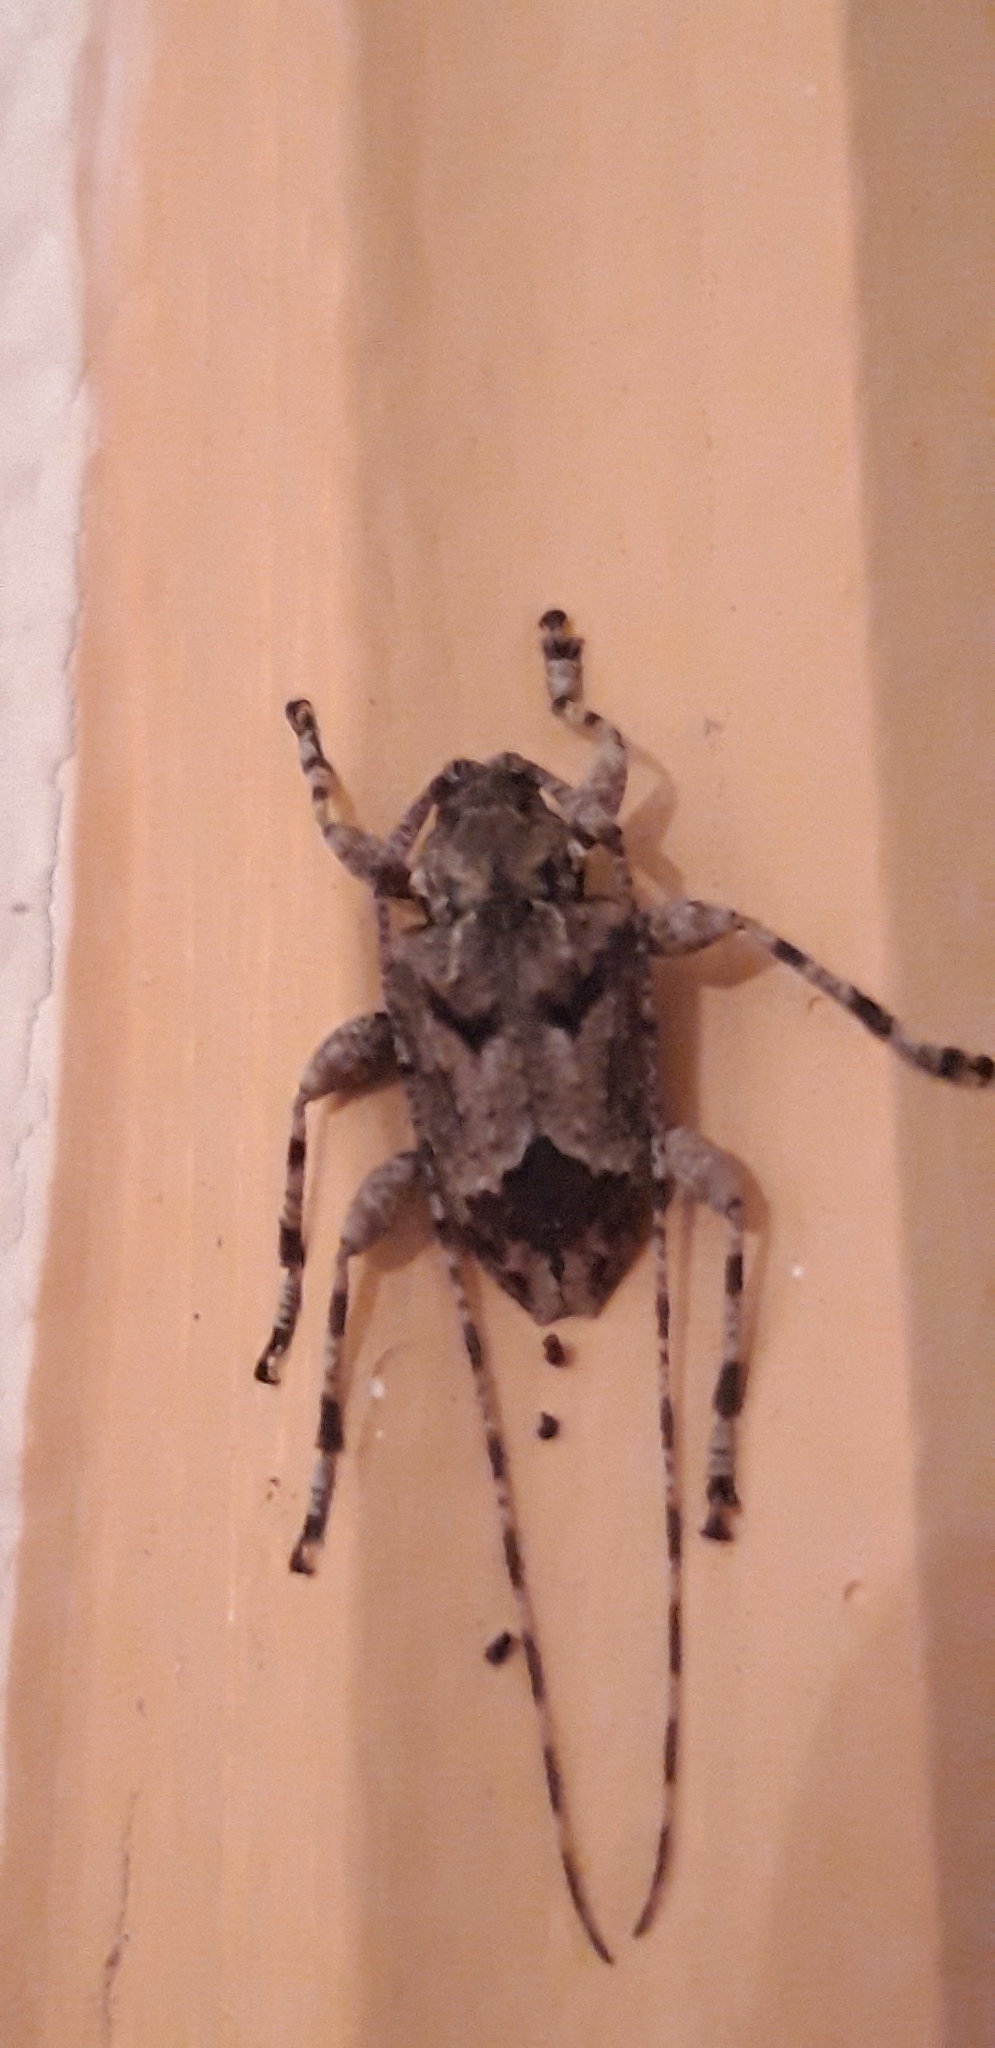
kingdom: Animalia
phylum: Arthropoda
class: Insecta
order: Coleoptera
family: Cerambycidae
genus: Amniscus
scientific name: Amniscus praemorsus
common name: Cryptic flat-faced longhorn
